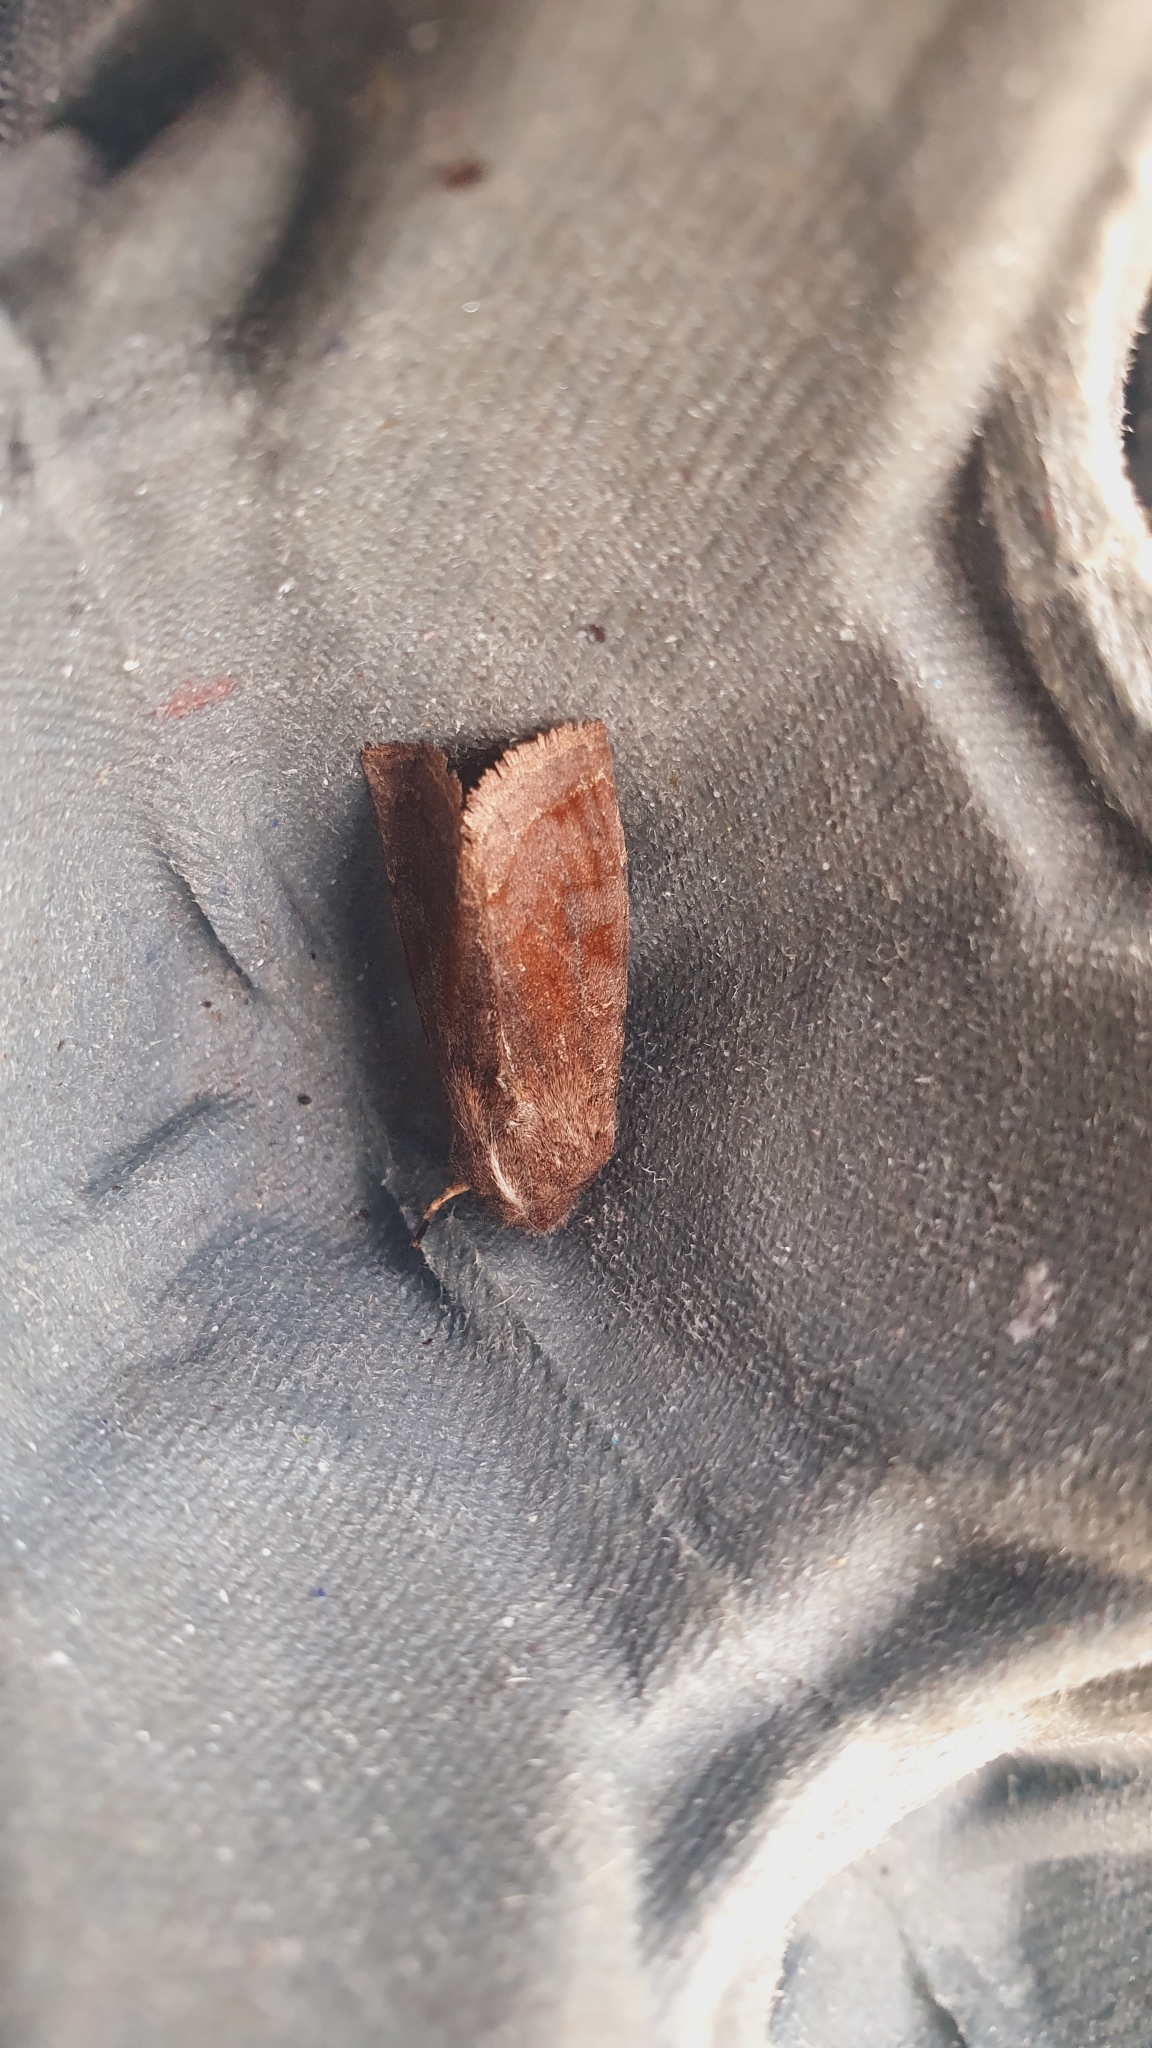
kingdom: Animalia
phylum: Arthropoda
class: Insecta
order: Lepidoptera
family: Noctuidae
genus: Orthosia
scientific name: Orthosia incerta
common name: Clouded drab
